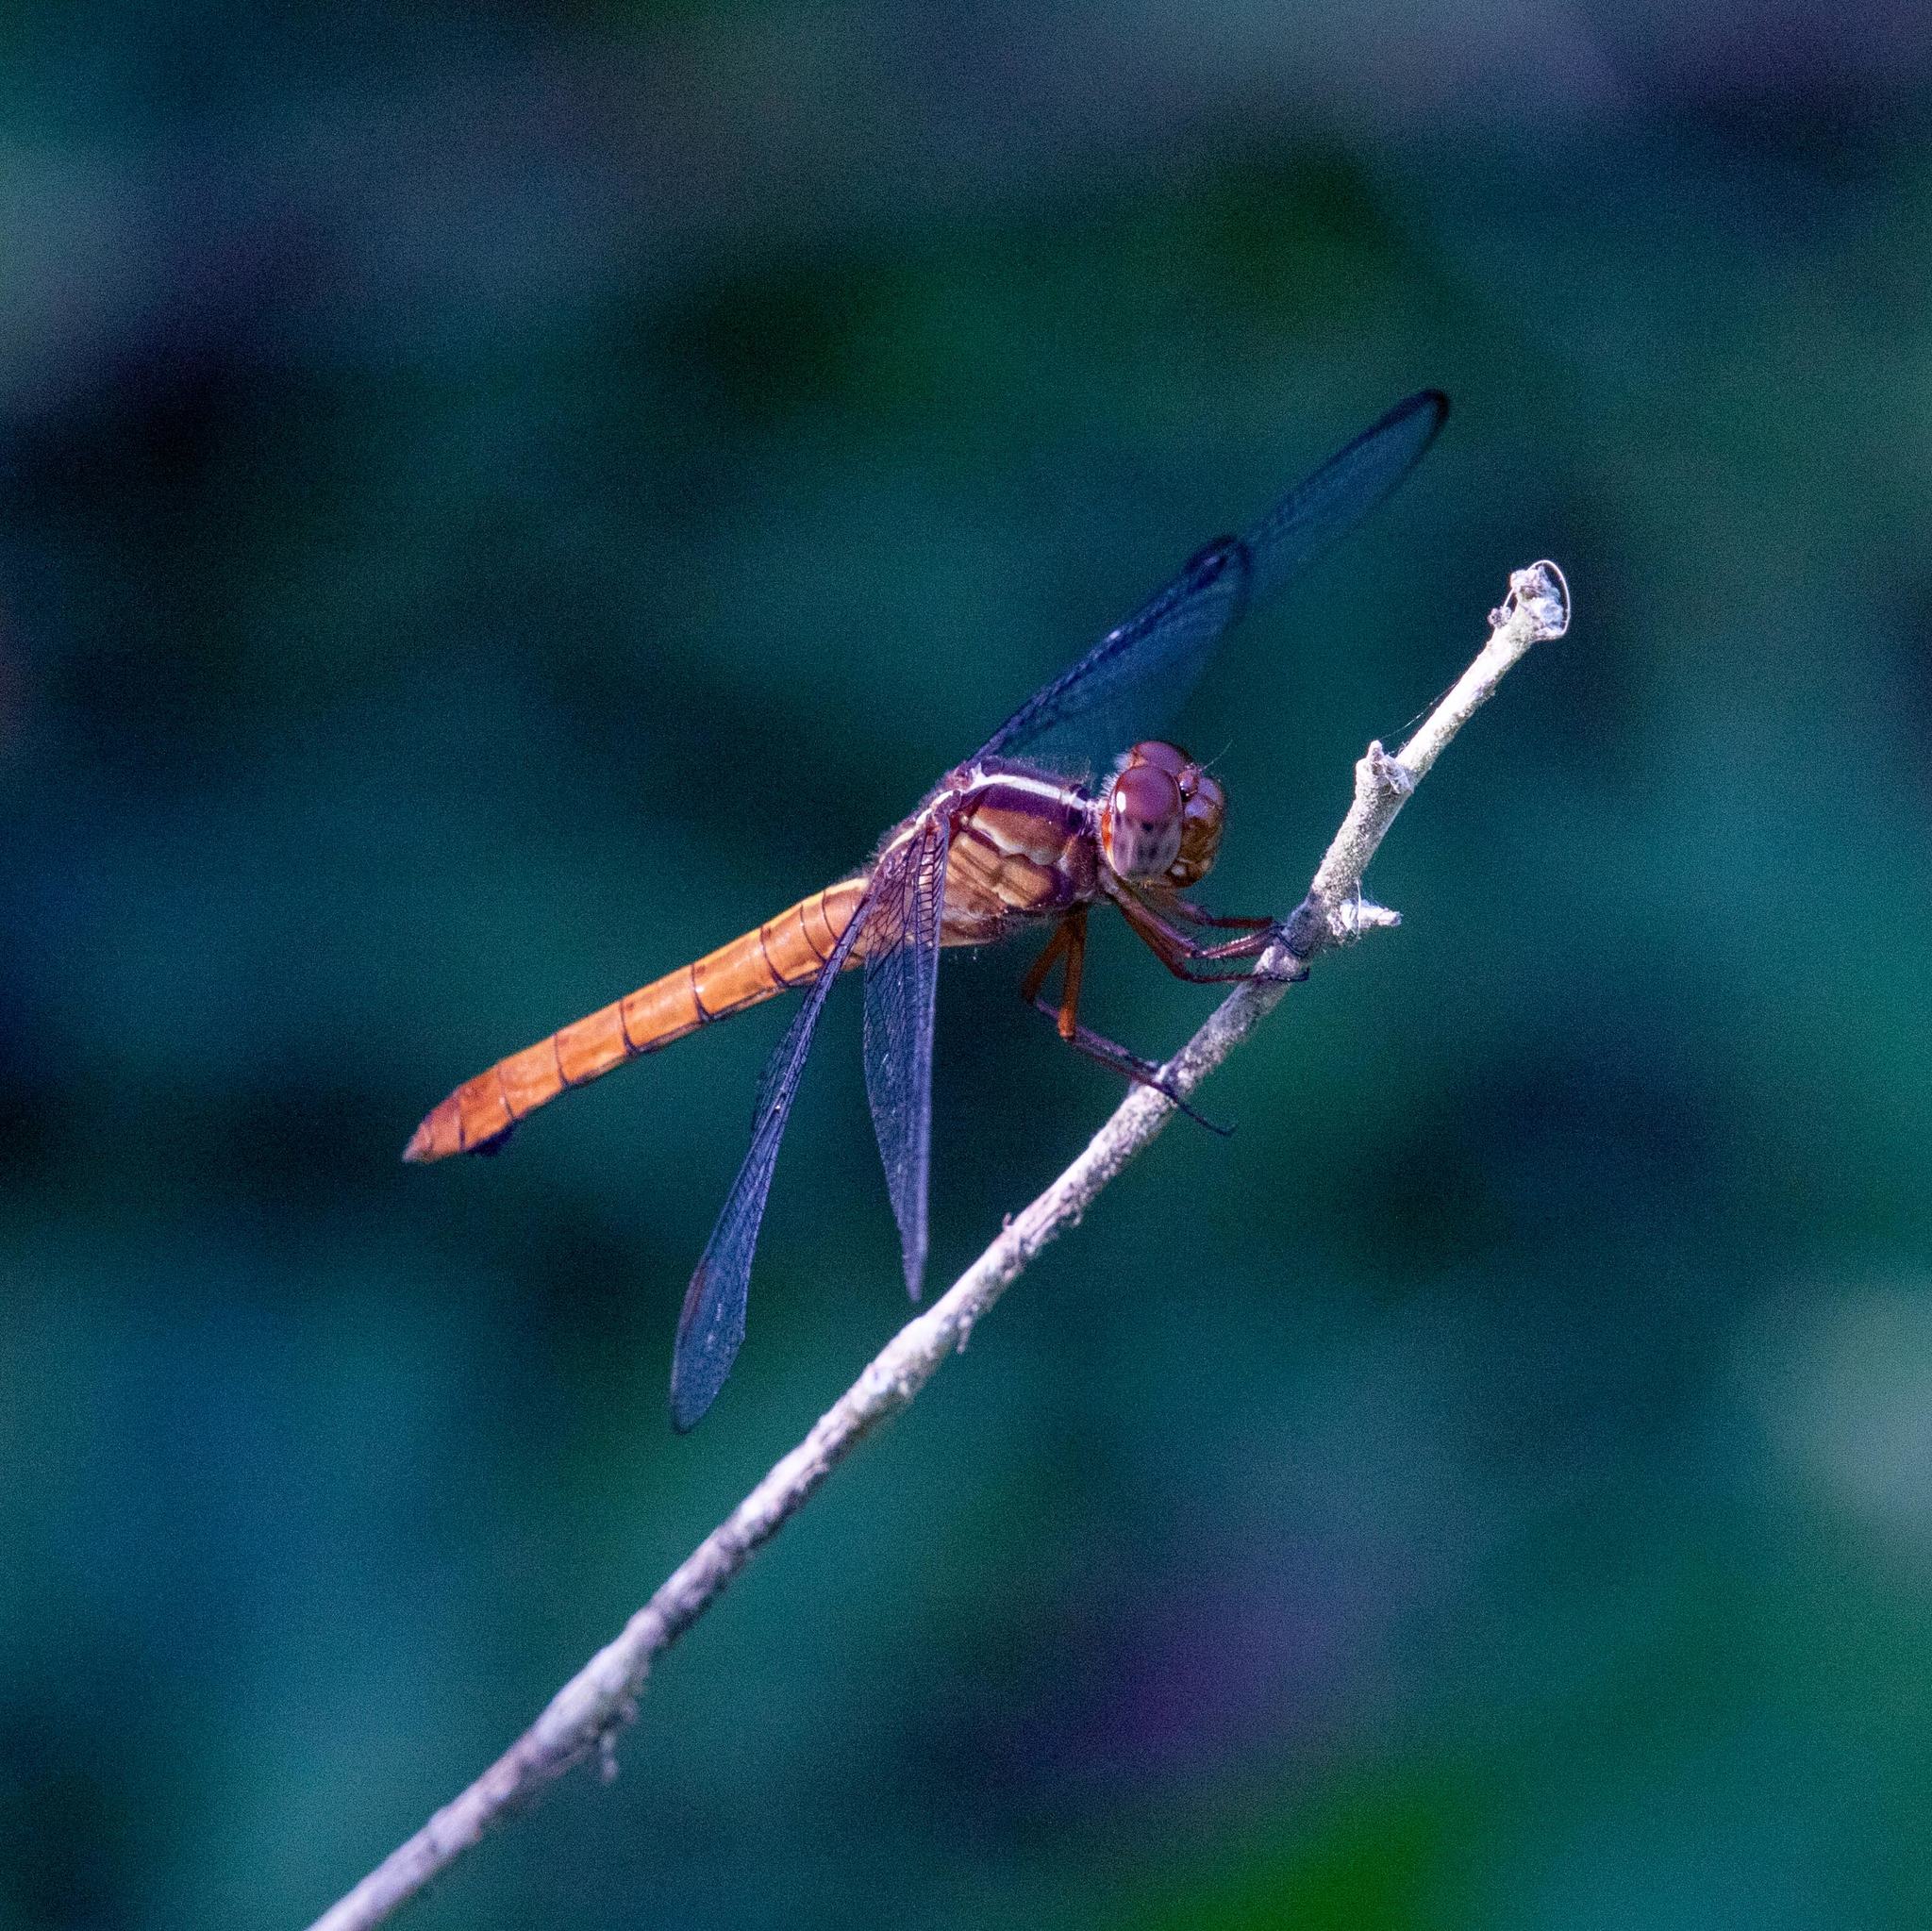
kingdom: Animalia
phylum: Arthropoda
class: Insecta
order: Odonata
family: Libellulidae
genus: Orthemis
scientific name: Orthemis discolor
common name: Carmine skimmer
